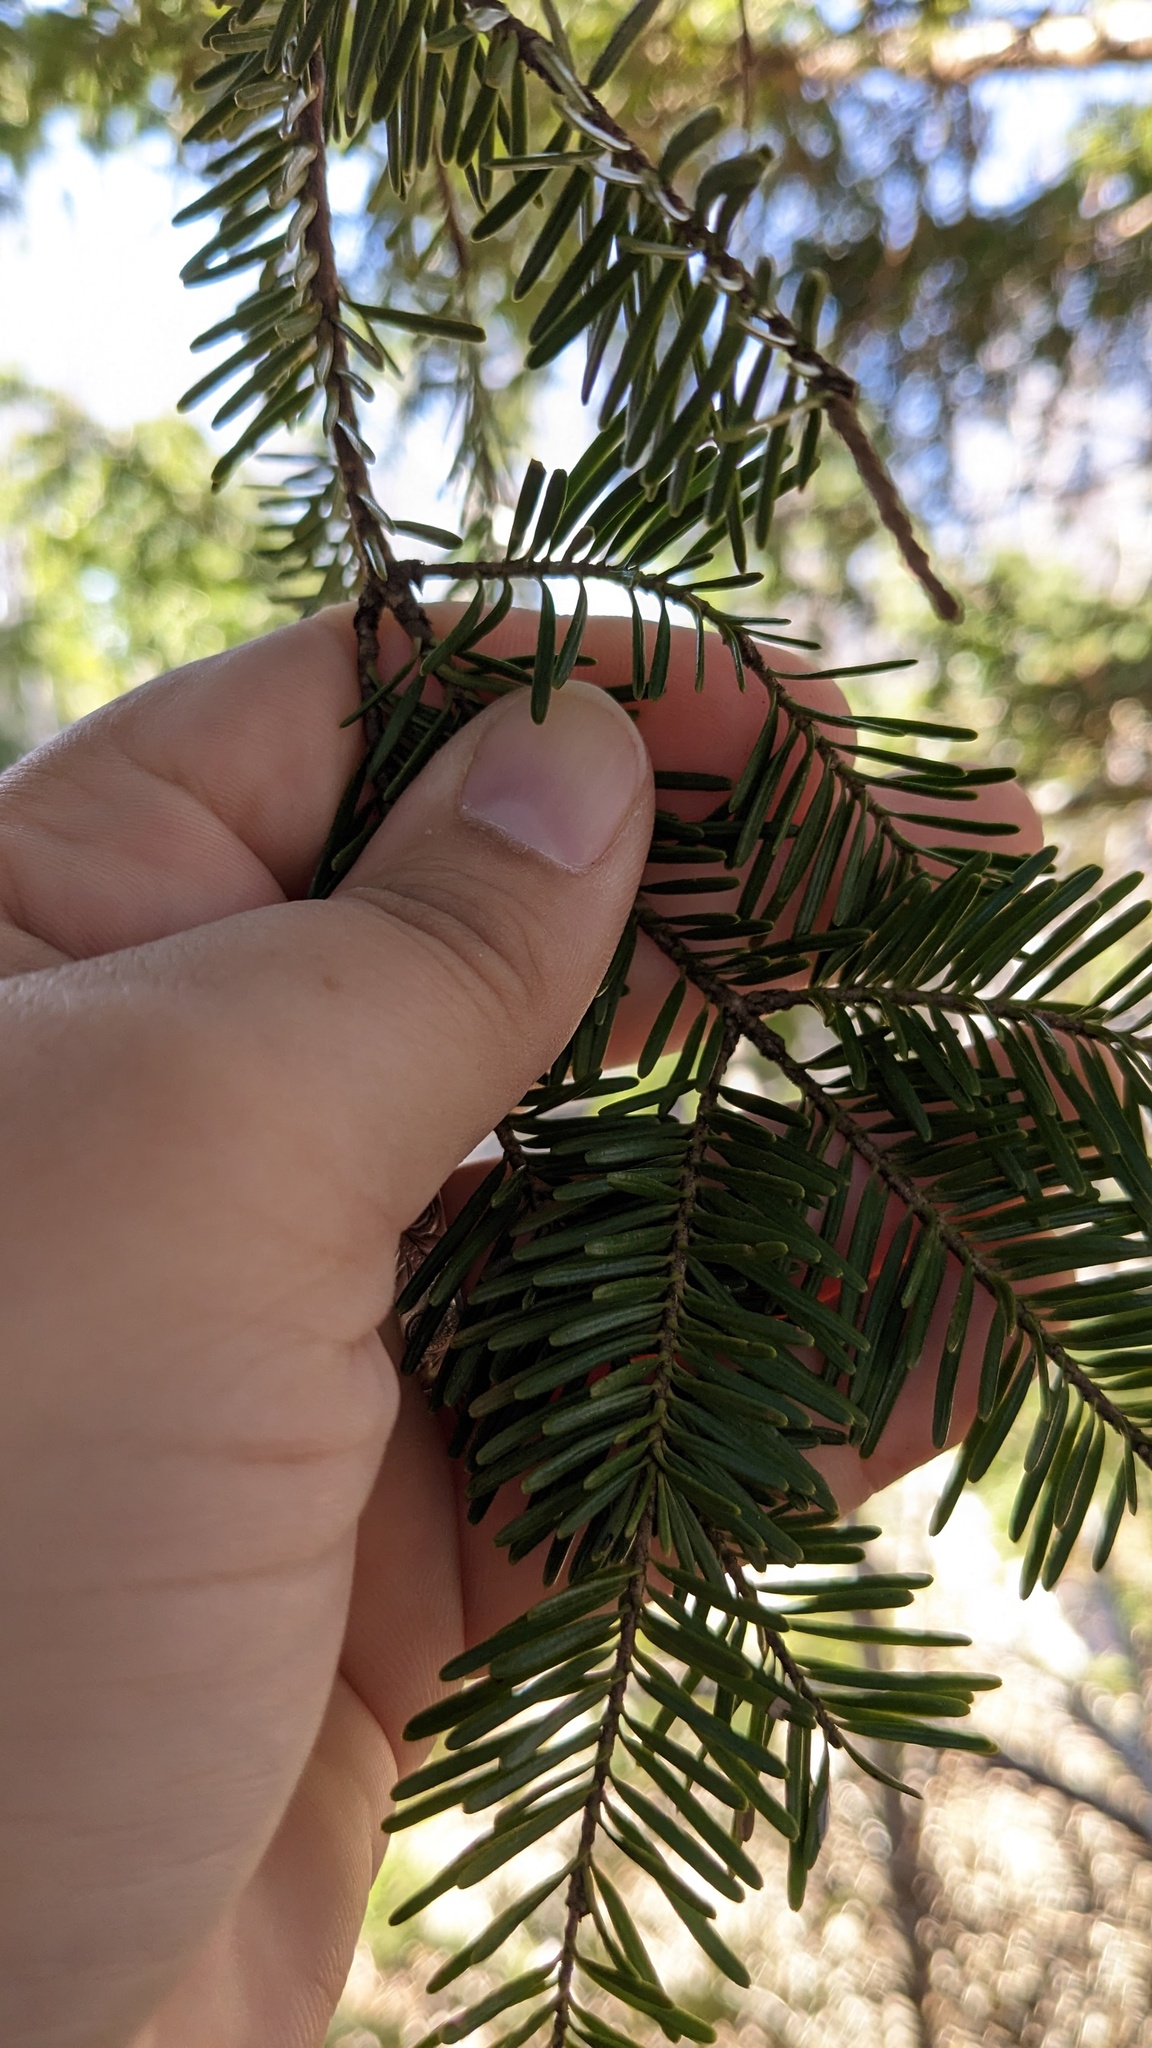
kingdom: Plantae
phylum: Tracheophyta
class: Pinopsida
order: Pinales
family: Pinaceae
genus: Abies
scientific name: Abies balsamea
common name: Balsam fir
